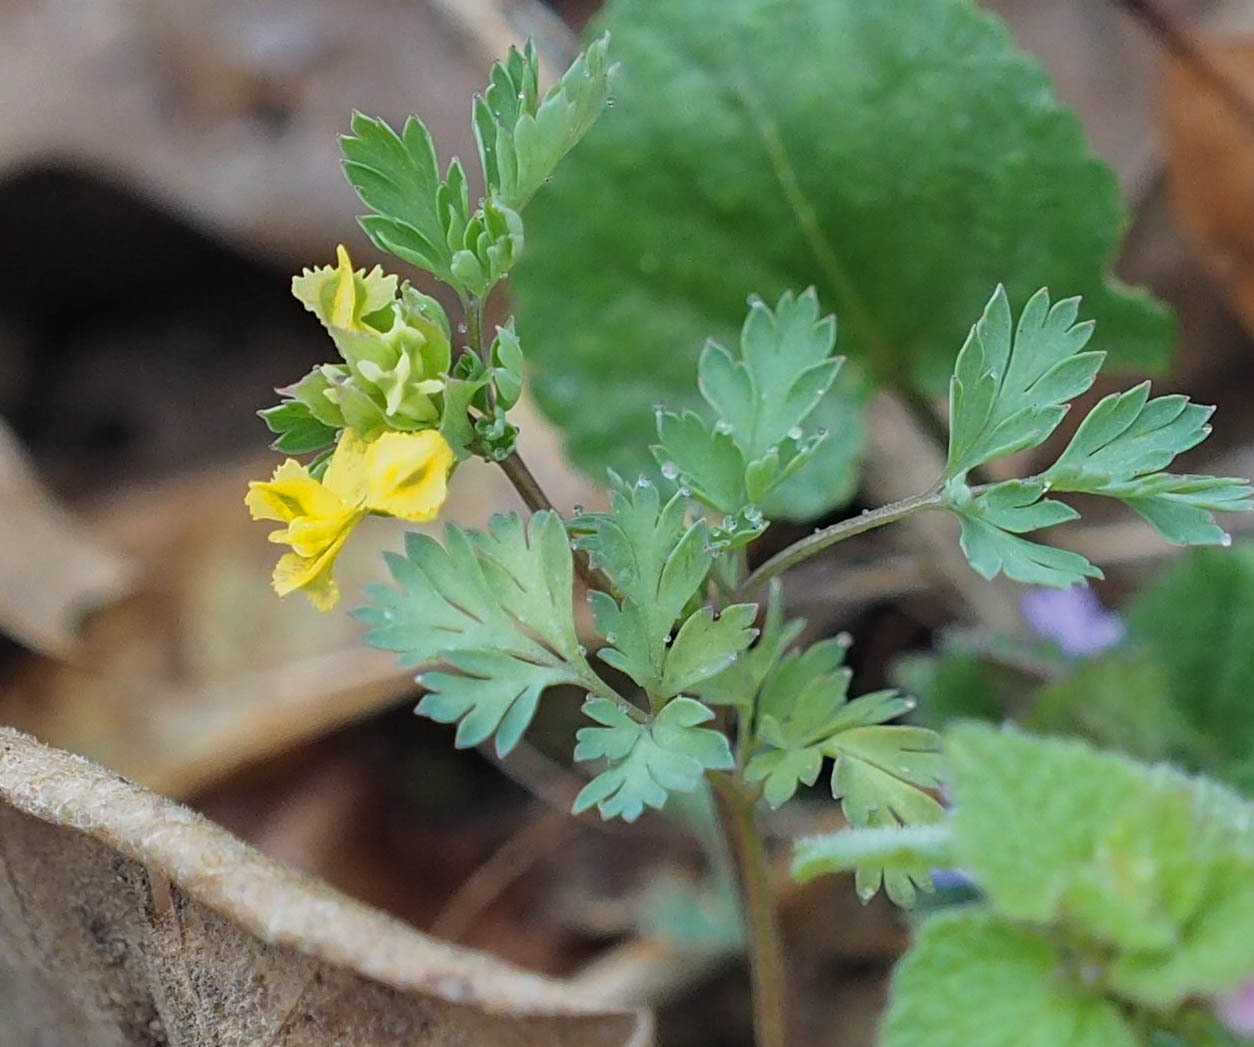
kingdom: Plantae
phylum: Tracheophyta
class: Magnoliopsida
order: Ranunculales
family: Papaveraceae
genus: Corydalis
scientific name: Corydalis flavula
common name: Yellow corydalis
